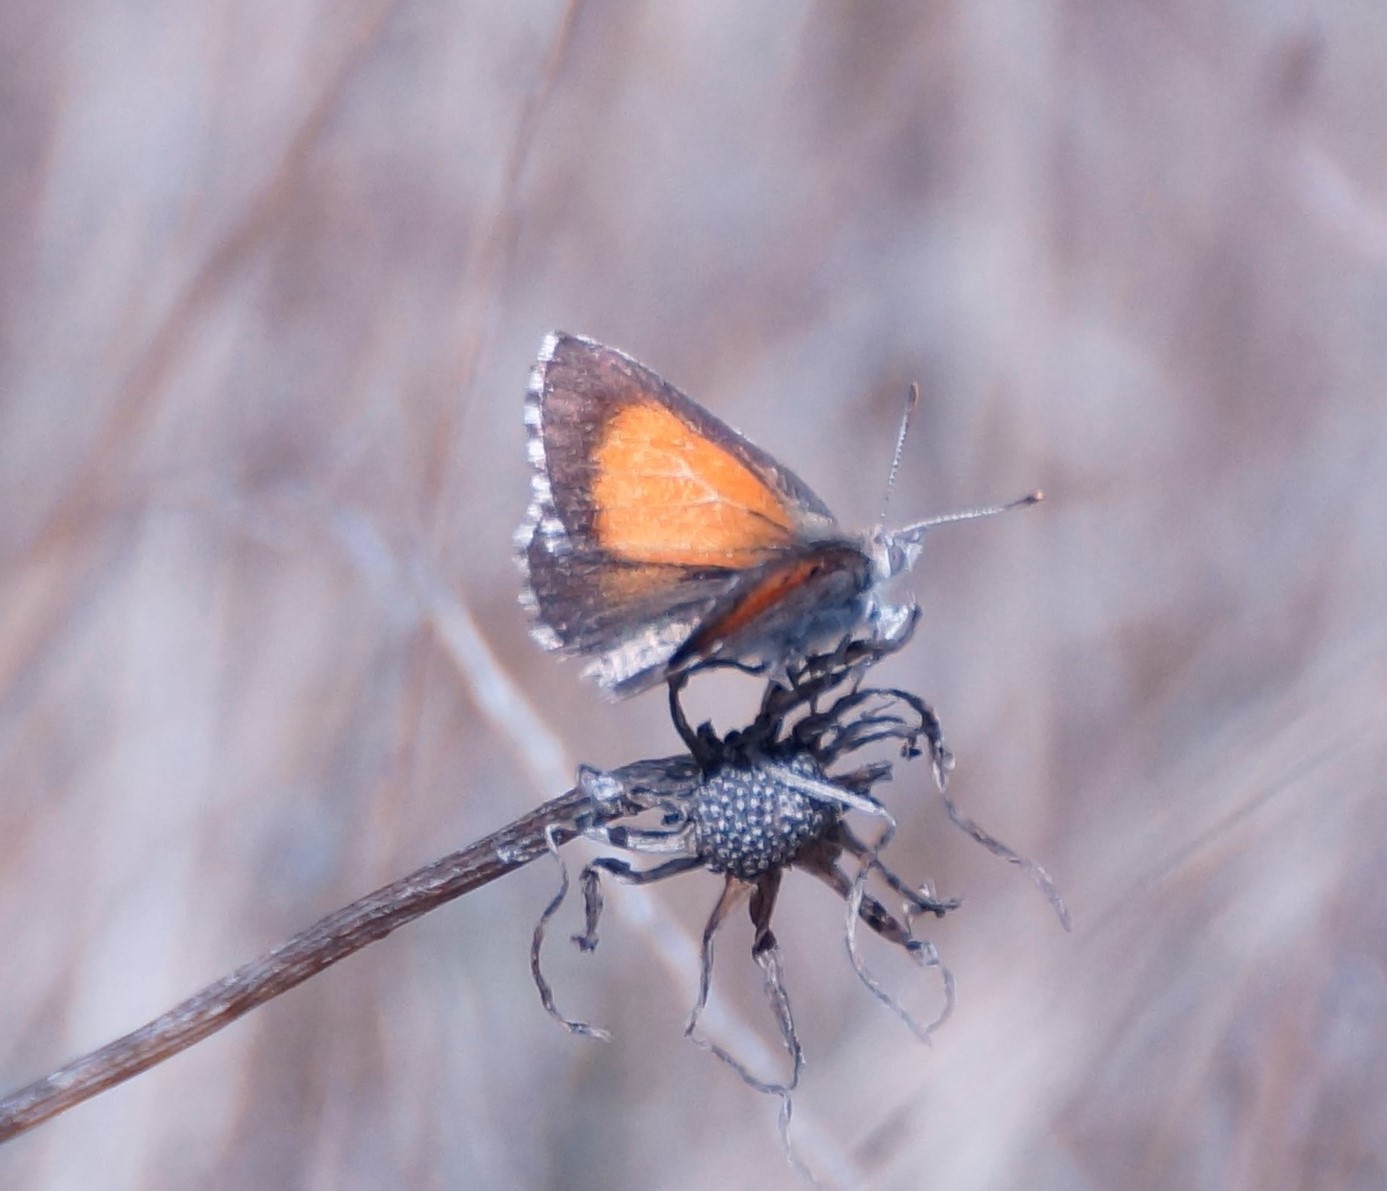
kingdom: Animalia
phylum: Arthropoda
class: Insecta
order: Lepidoptera
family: Lycaenidae
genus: Lucia
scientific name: Lucia limbaria
